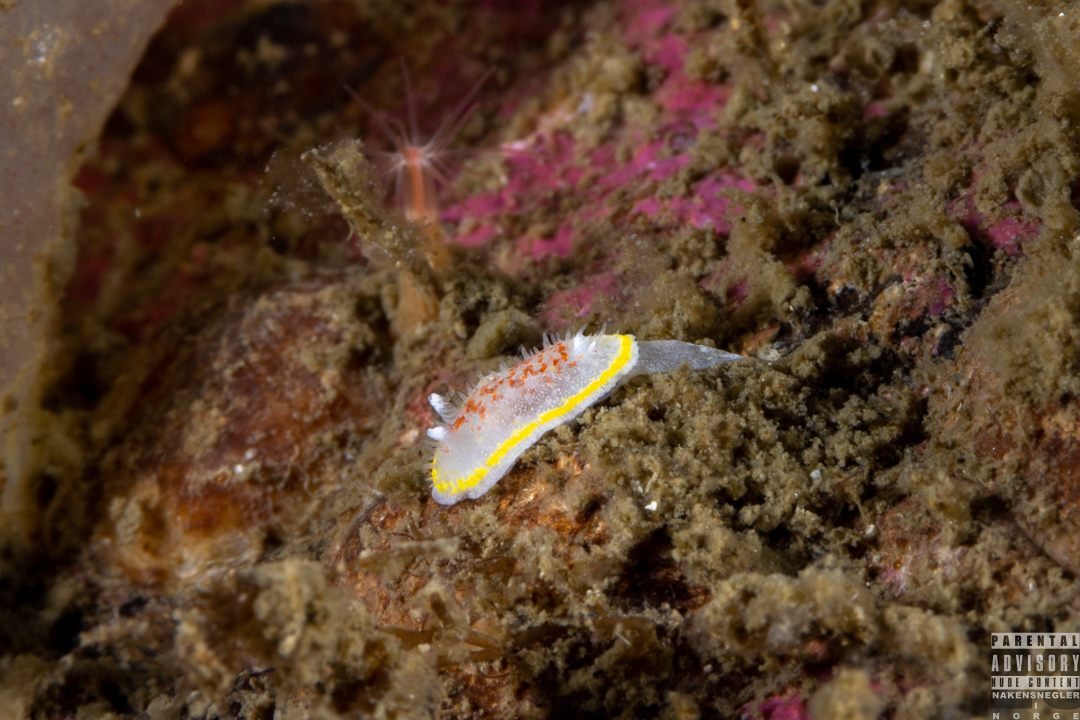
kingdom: Animalia
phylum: Mollusca
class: Gastropoda
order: Nudibranchia
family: Calycidorididae
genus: Diaphorodoris
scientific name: Diaphorodoris luteocincta
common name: Fried egg nudibranch
